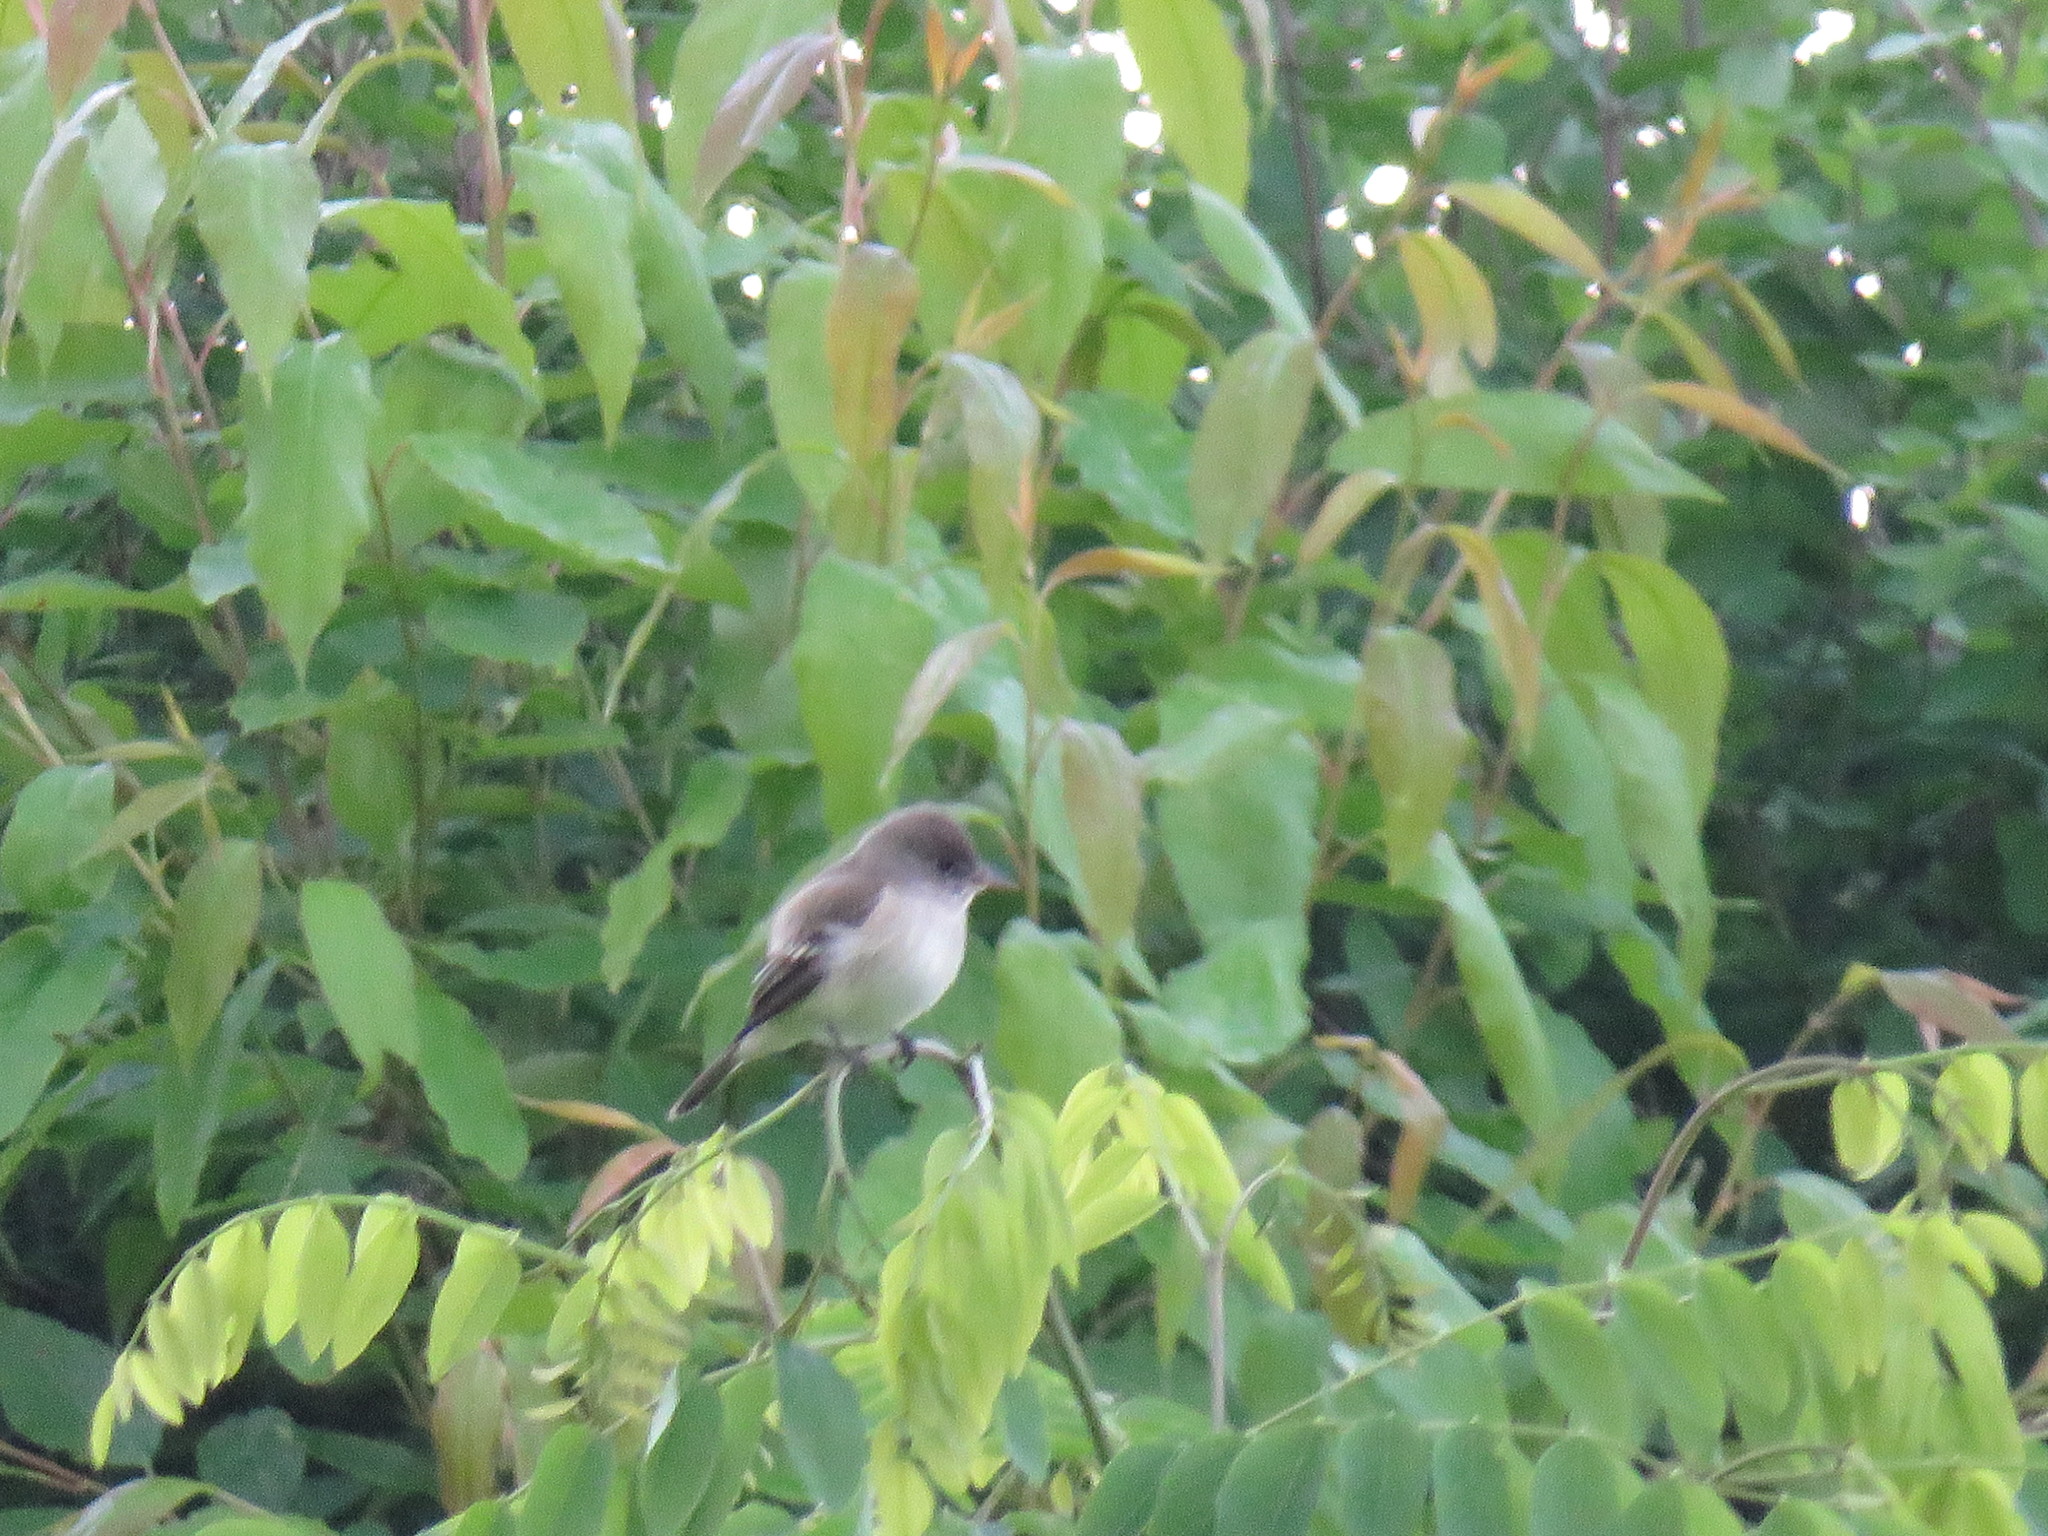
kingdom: Animalia
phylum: Chordata
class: Aves
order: Passeriformes
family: Tyrannidae
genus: Empidonax
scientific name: Empidonax alnorum
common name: Alder flycatcher
